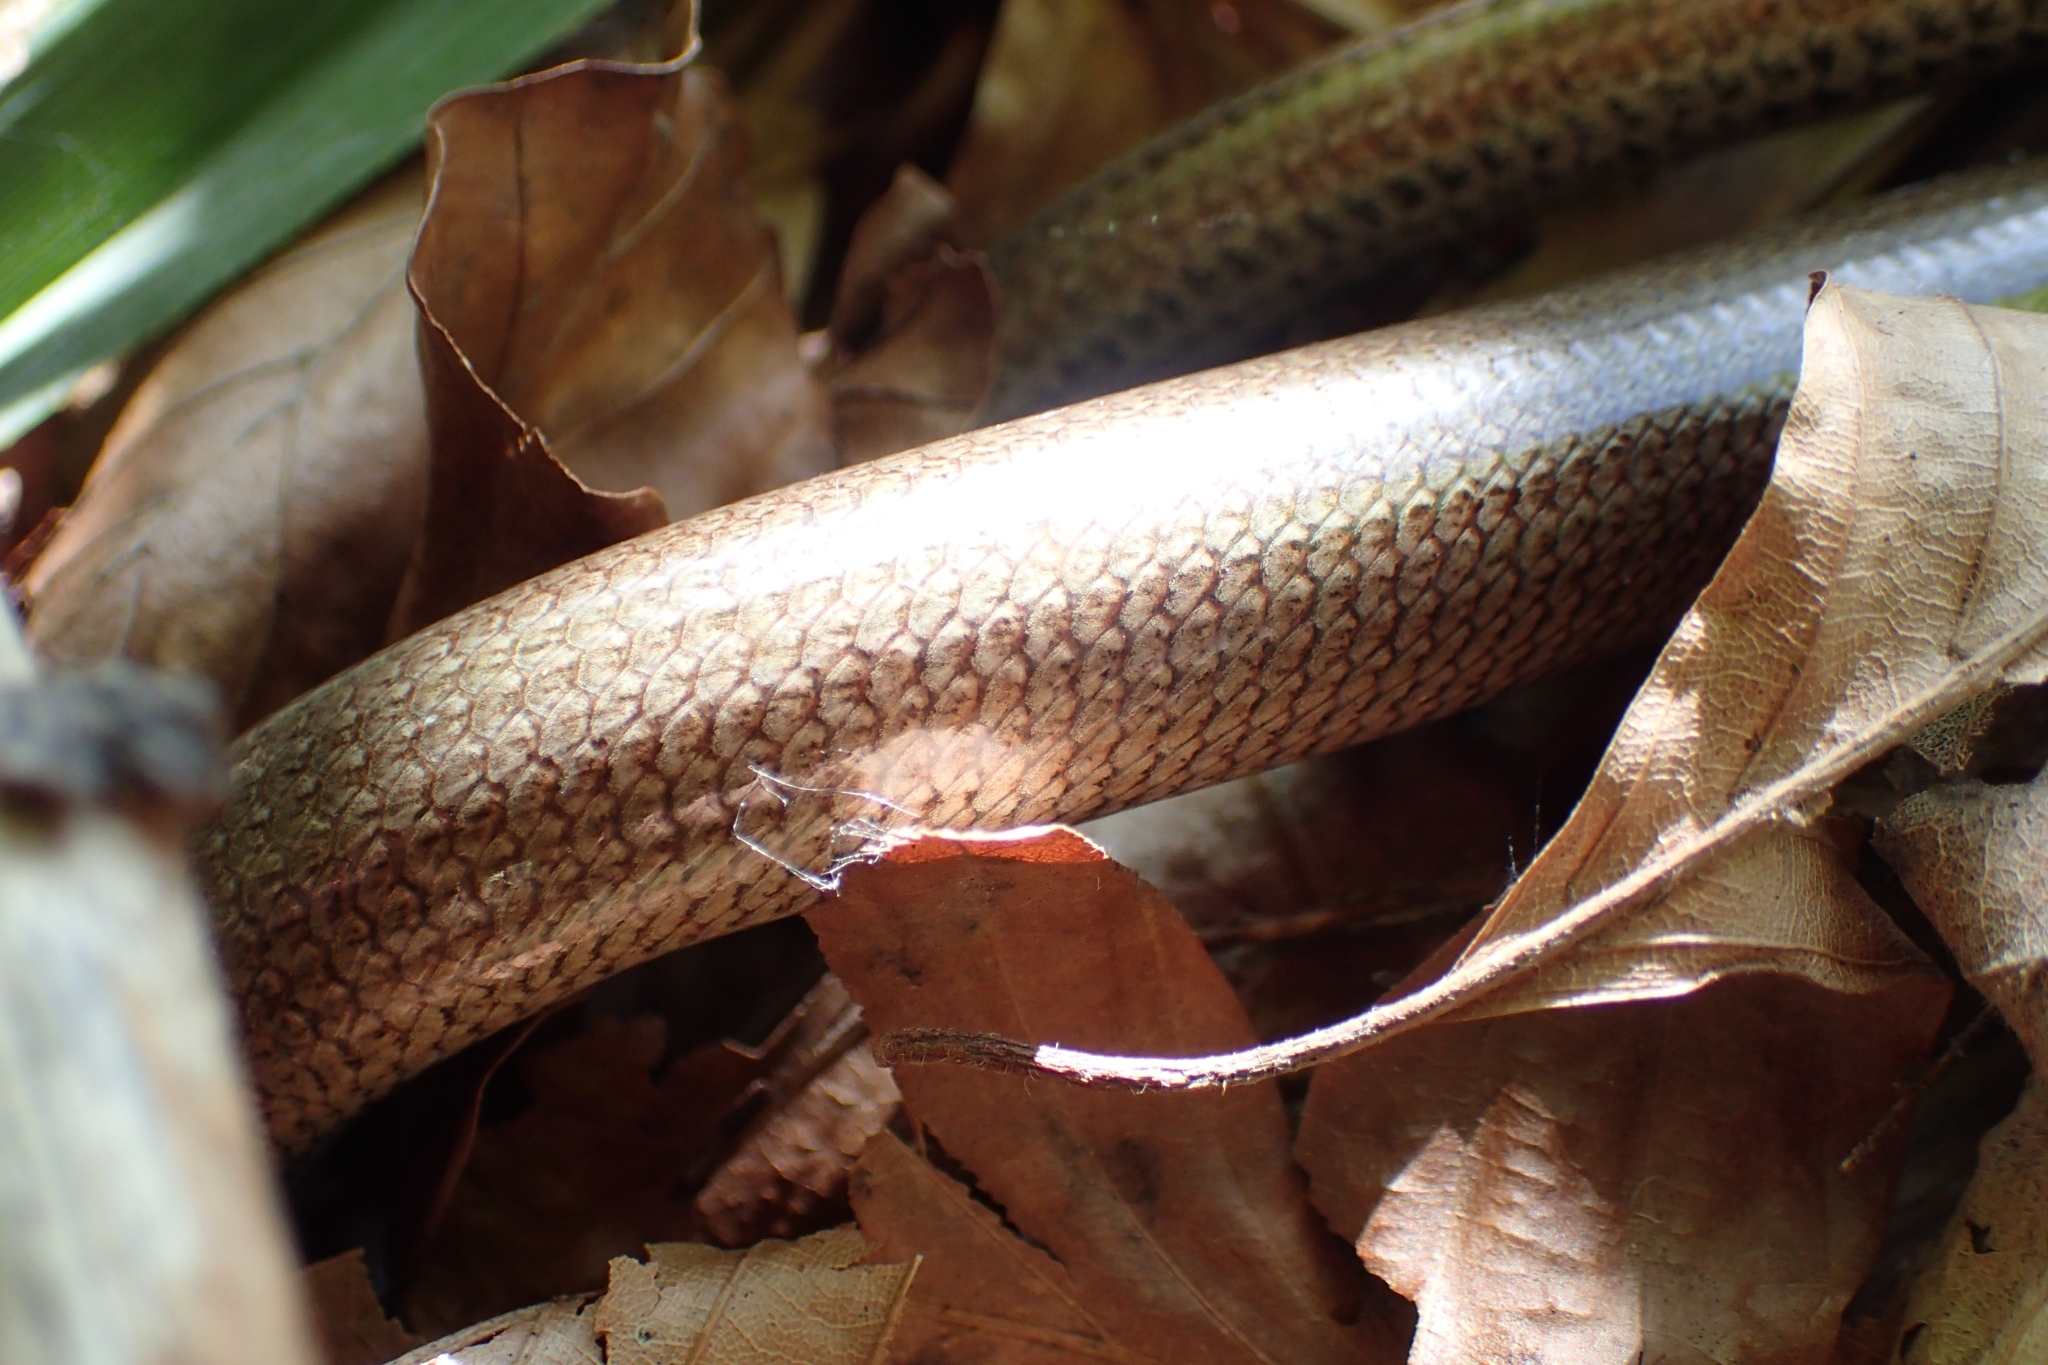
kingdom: Animalia
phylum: Chordata
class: Squamata
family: Anguidae
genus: Anguis
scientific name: Anguis fragilis
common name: Slow worm
